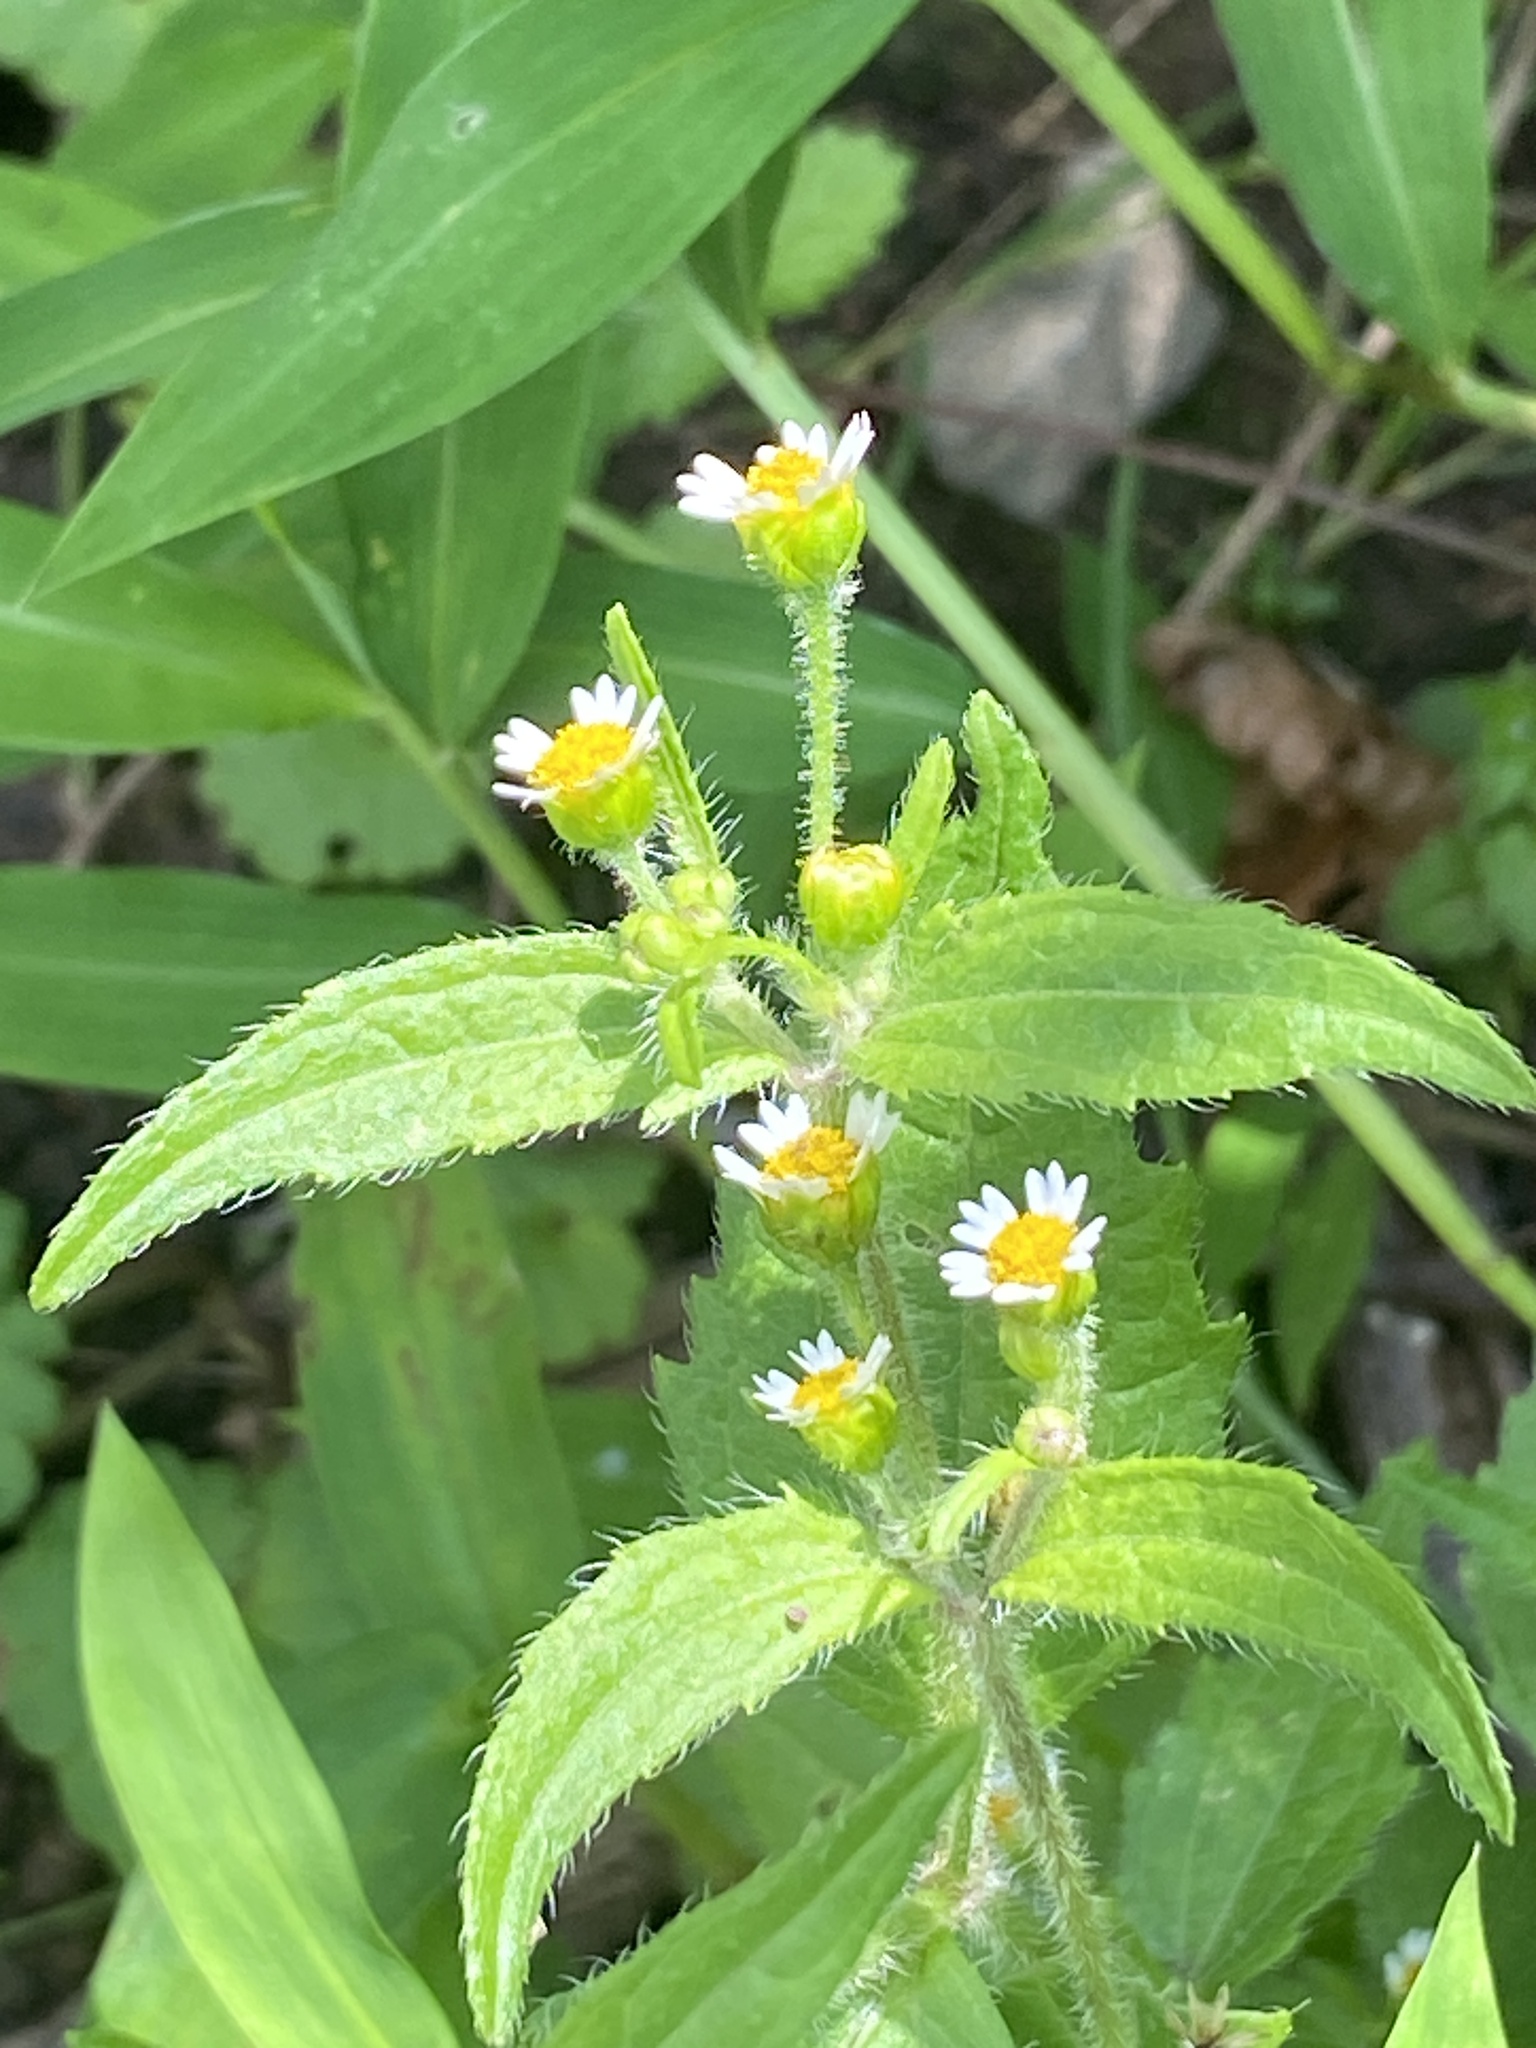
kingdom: Plantae
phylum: Tracheophyta
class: Magnoliopsida
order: Asterales
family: Asteraceae
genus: Galinsoga
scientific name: Galinsoga quadriradiata
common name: Shaggy soldier
